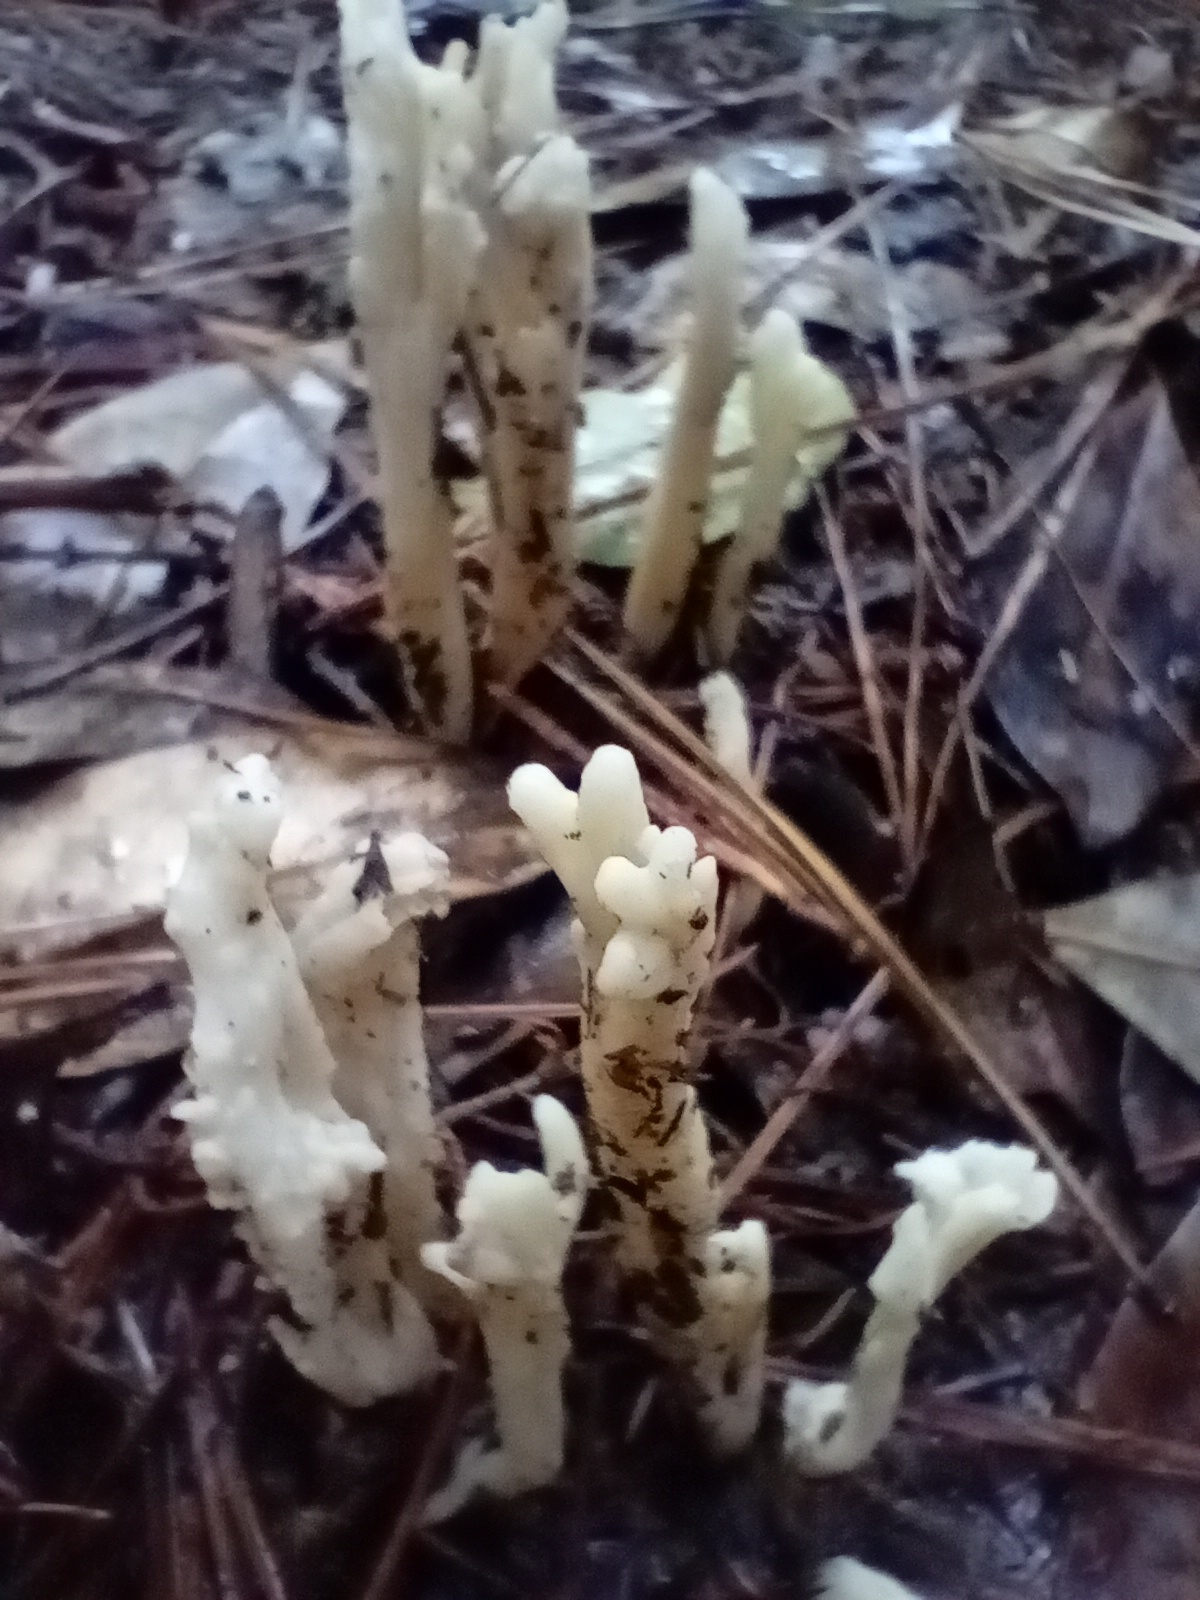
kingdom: Fungi
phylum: Basidiomycota
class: Agaricomycetes
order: Cantharellales
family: Hydnaceae
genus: Clavulina
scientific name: Clavulina rugosa
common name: Wrinkled club
